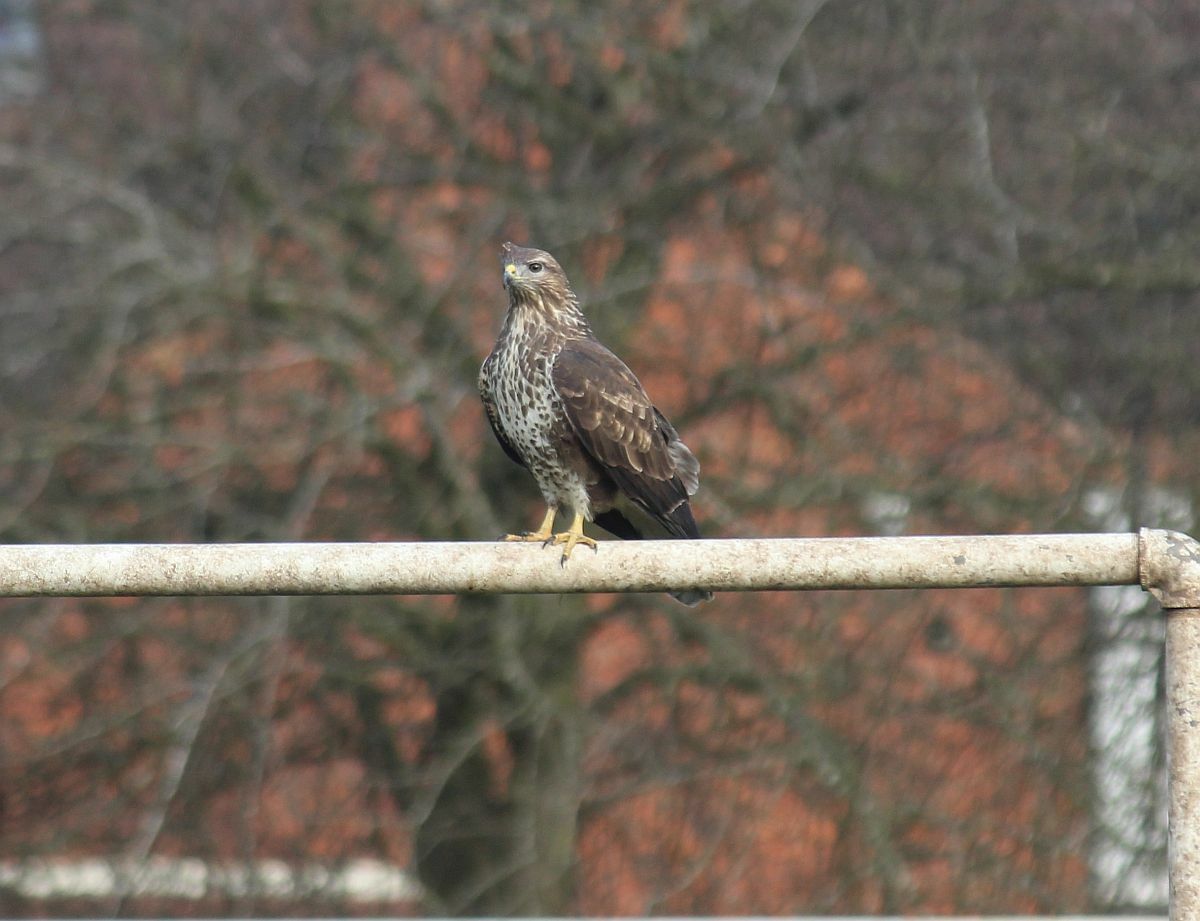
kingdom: Animalia
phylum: Chordata
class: Aves
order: Accipitriformes
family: Accipitridae
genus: Buteo
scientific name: Buteo buteo
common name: Common buzzard
